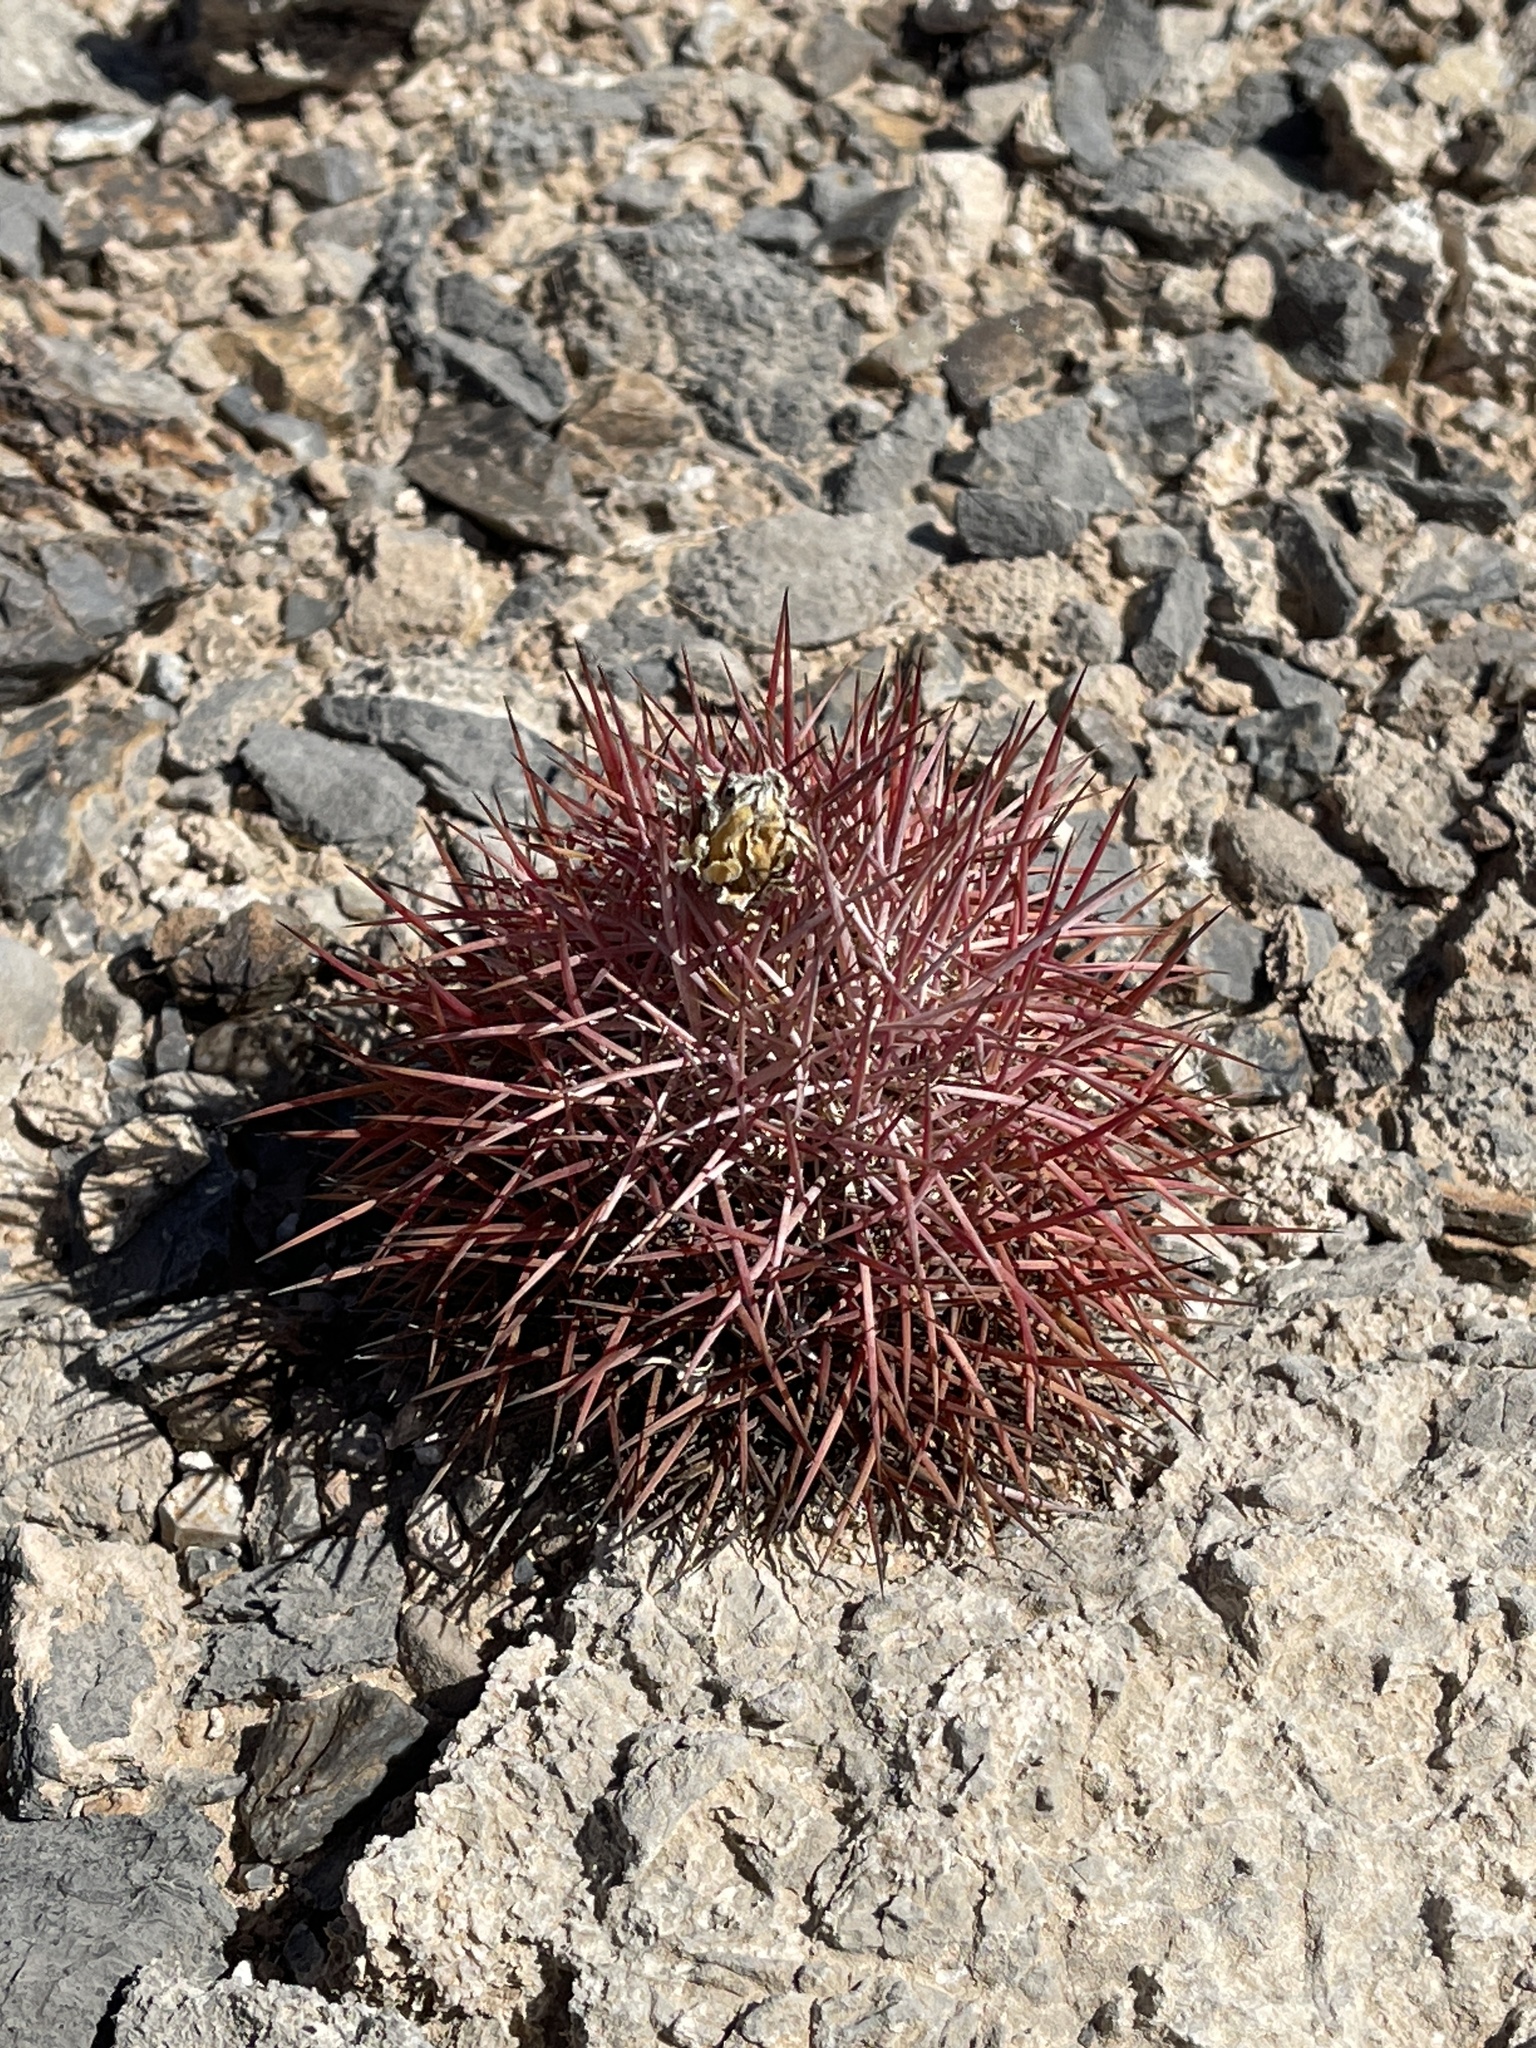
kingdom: Plantae
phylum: Tracheophyta
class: Magnoliopsida
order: Caryophyllales
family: Cactaceae
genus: Sclerocactus
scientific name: Sclerocactus johnsonii
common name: Eight-spine fishhook cactus
